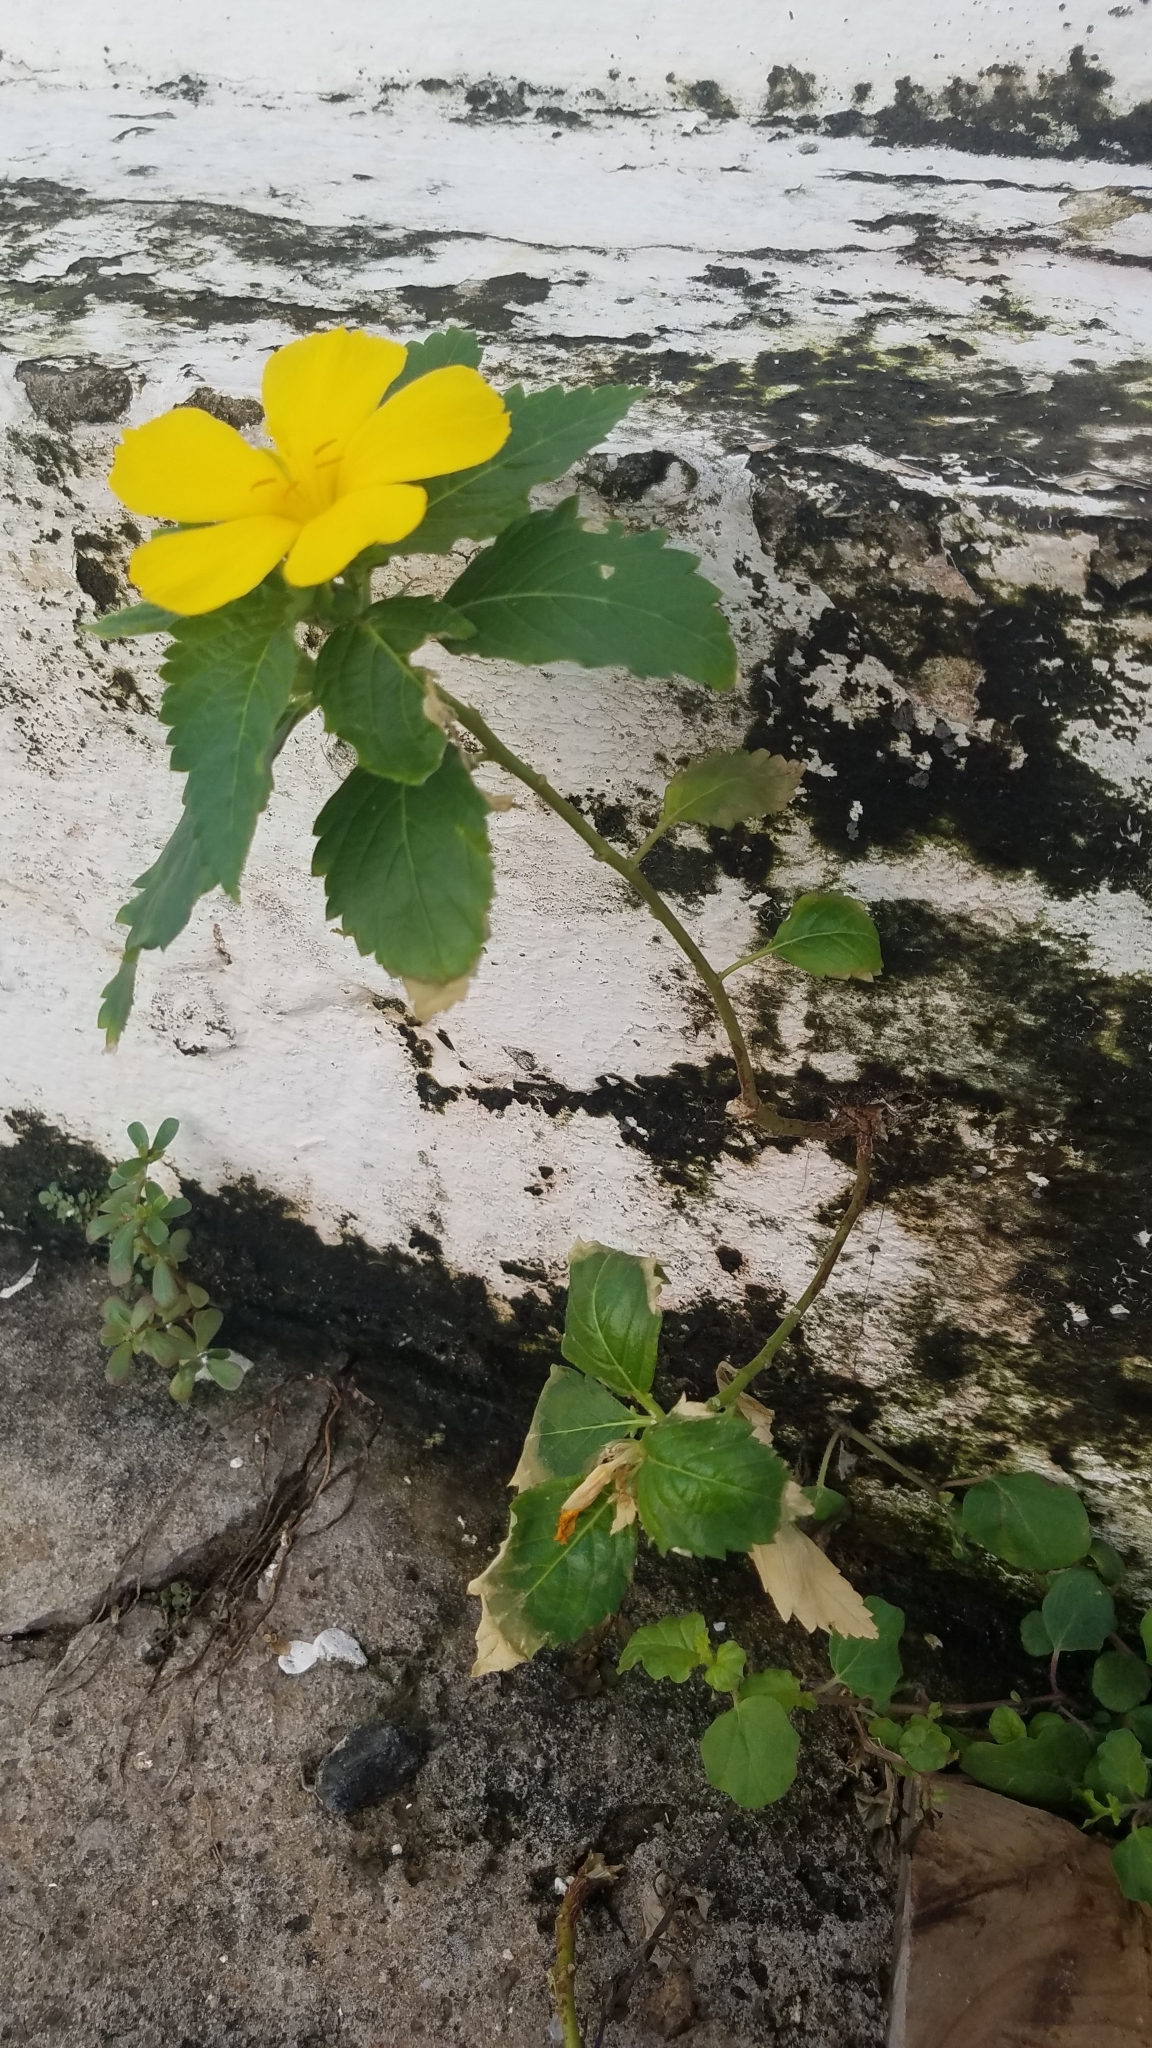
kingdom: Plantae
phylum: Tracheophyta
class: Magnoliopsida
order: Malpighiales
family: Turneraceae
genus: Turnera
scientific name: Turnera ulmifolia
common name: Ramgoat dashalong
